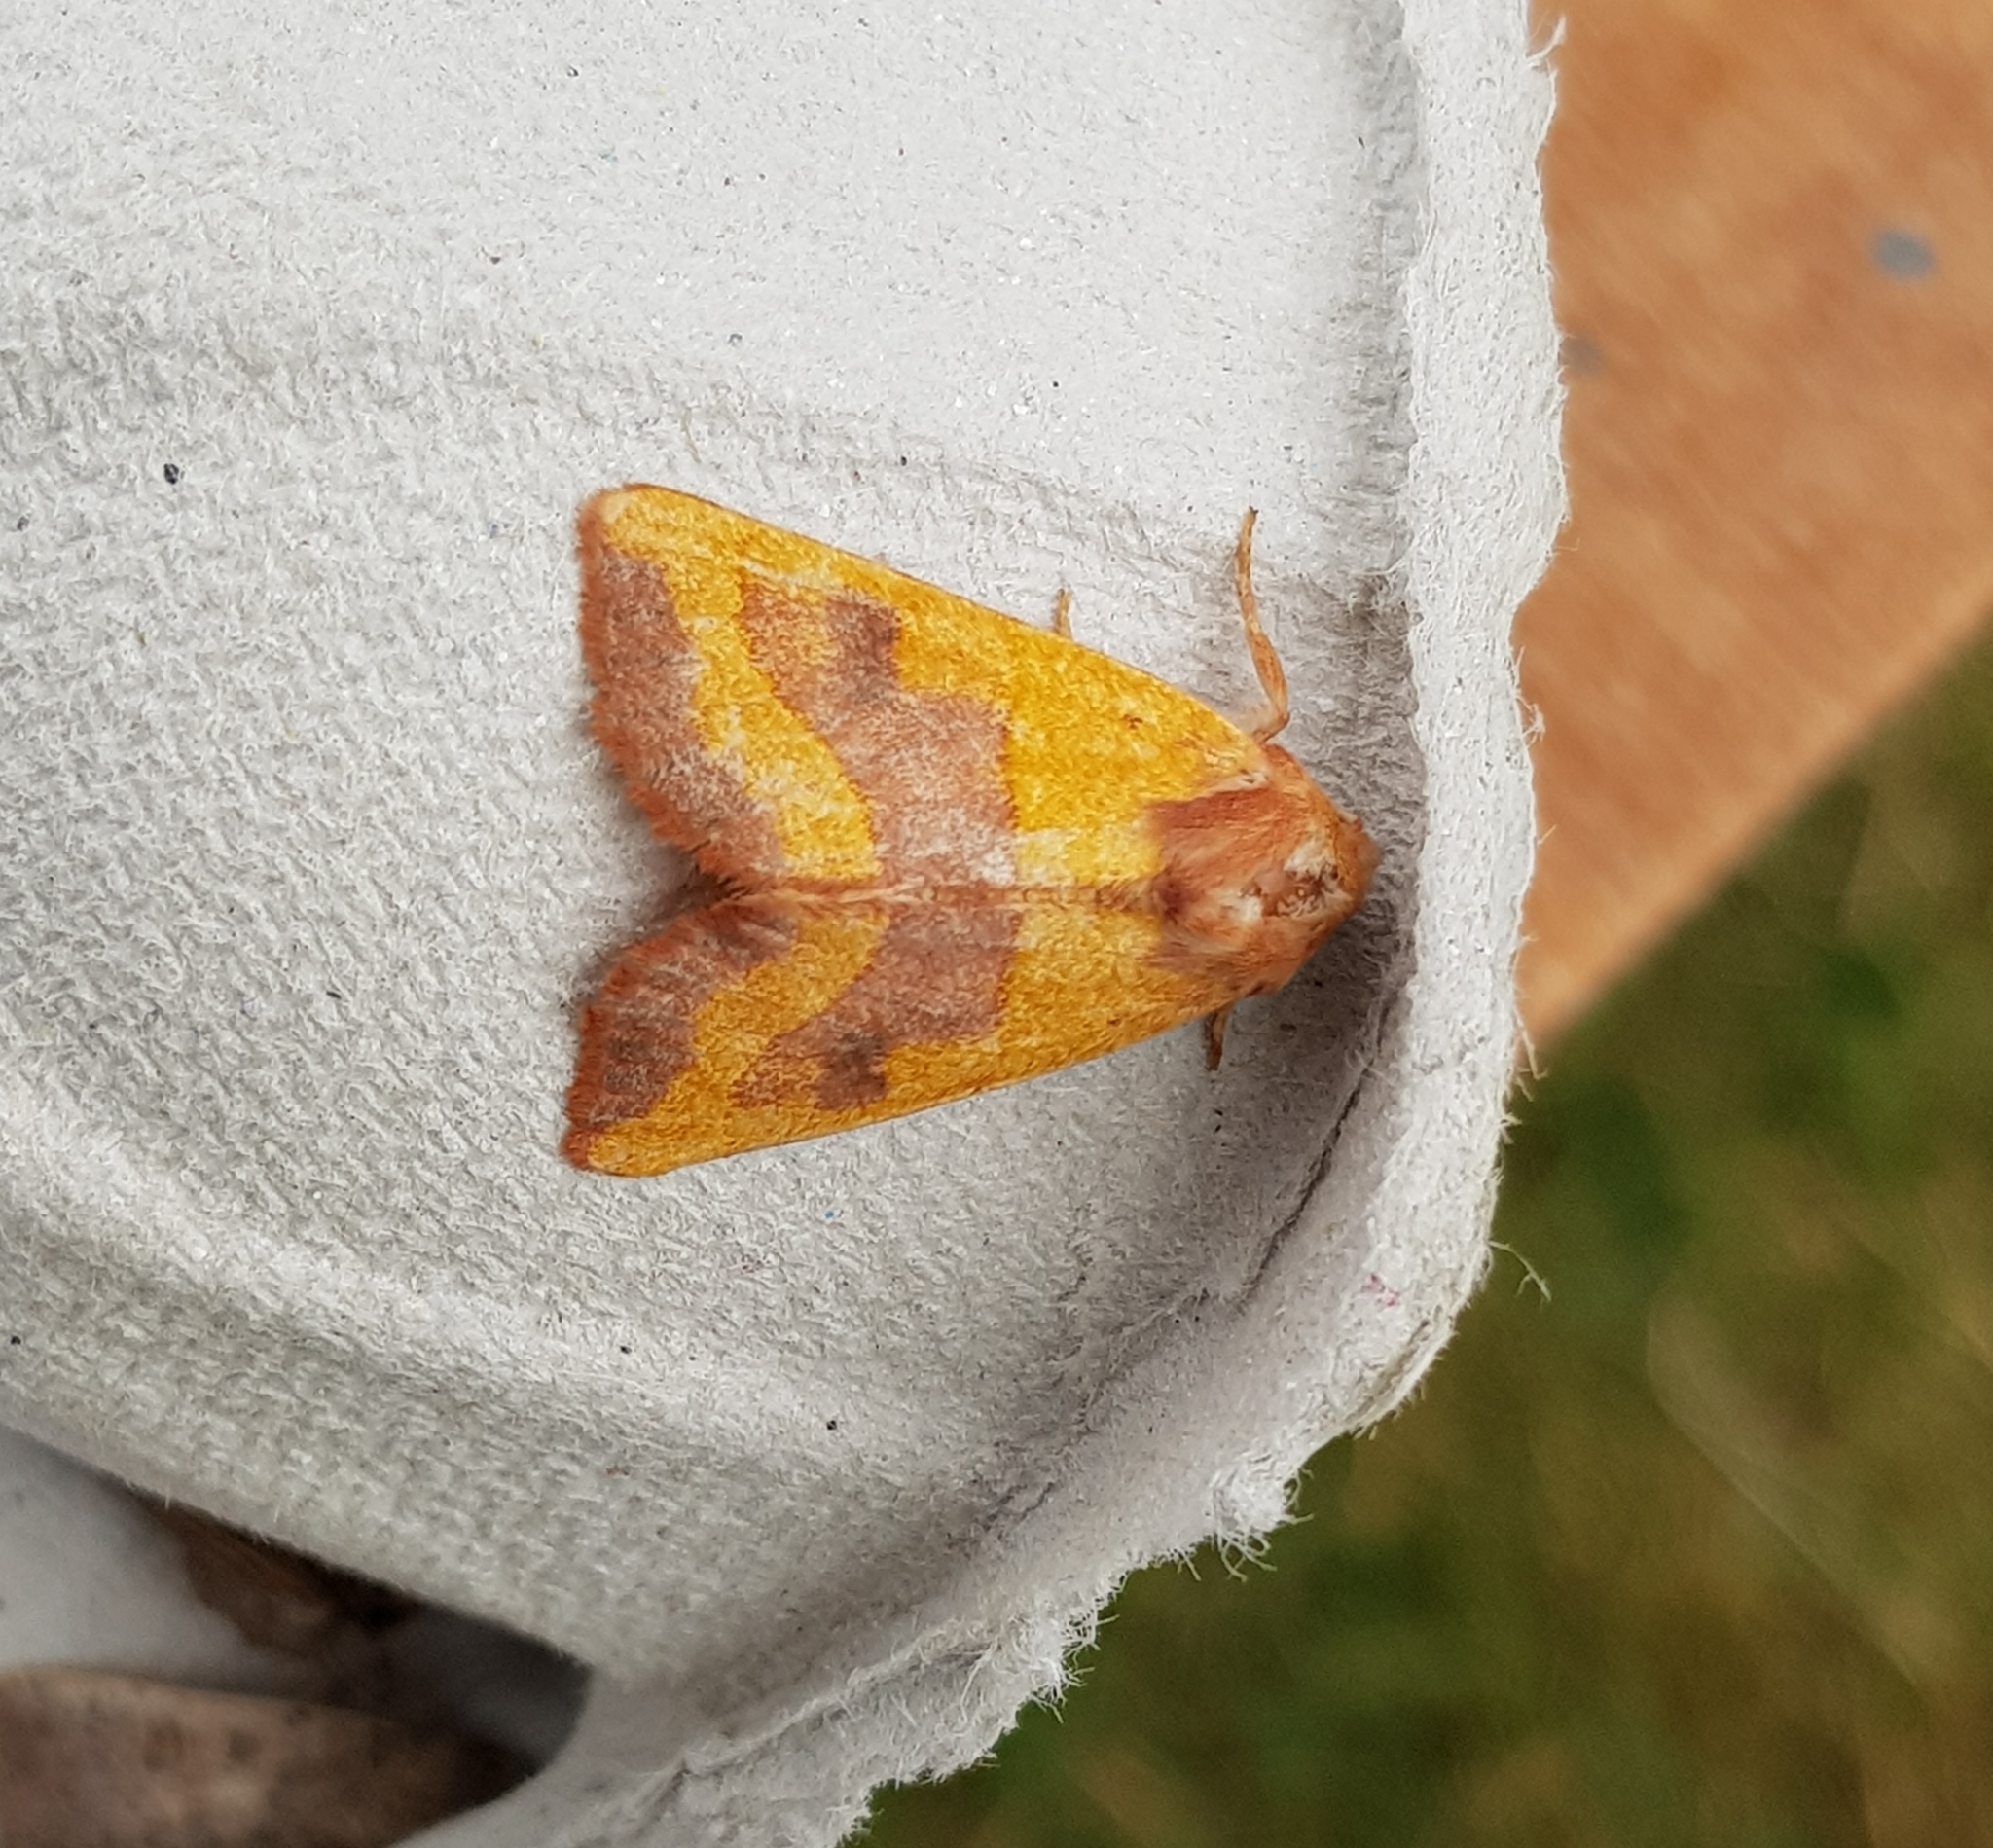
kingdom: Animalia
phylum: Arthropoda
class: Insecta
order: Lepidoptera
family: Noctuidae
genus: Atethmia
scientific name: Atethmia centrago
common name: Centre-barred sallow
